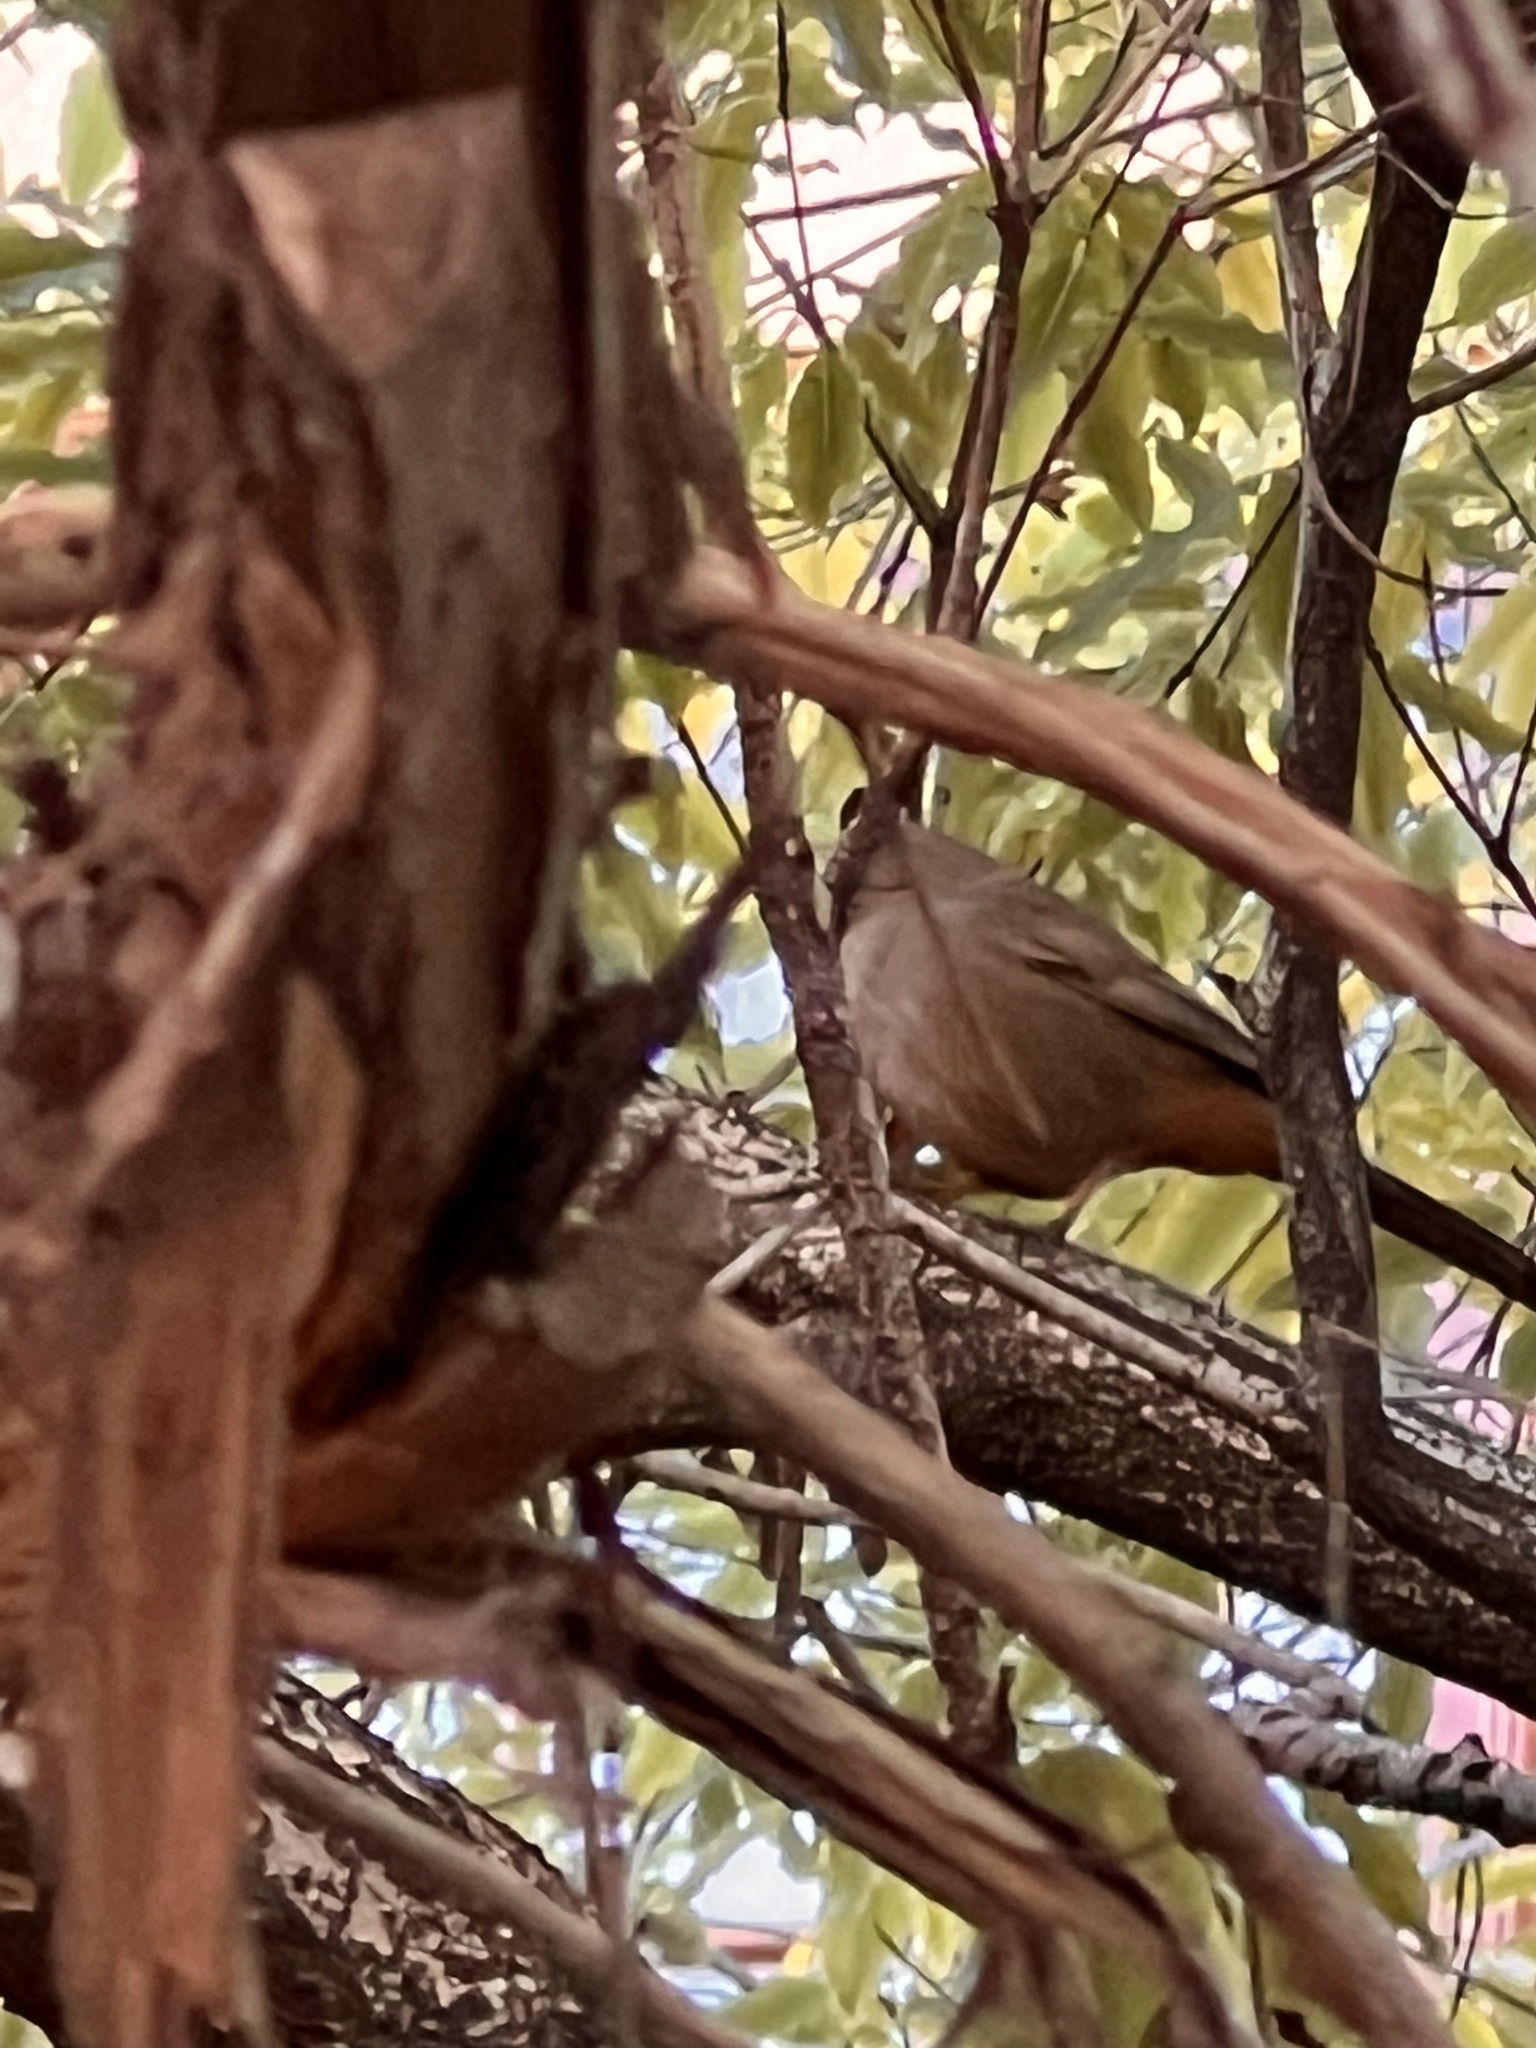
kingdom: Animalia
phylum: Chordata
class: Aves
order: Passeriformes
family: Passerellidae
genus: Melozone
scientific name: Melozone crissalis
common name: California towhee
